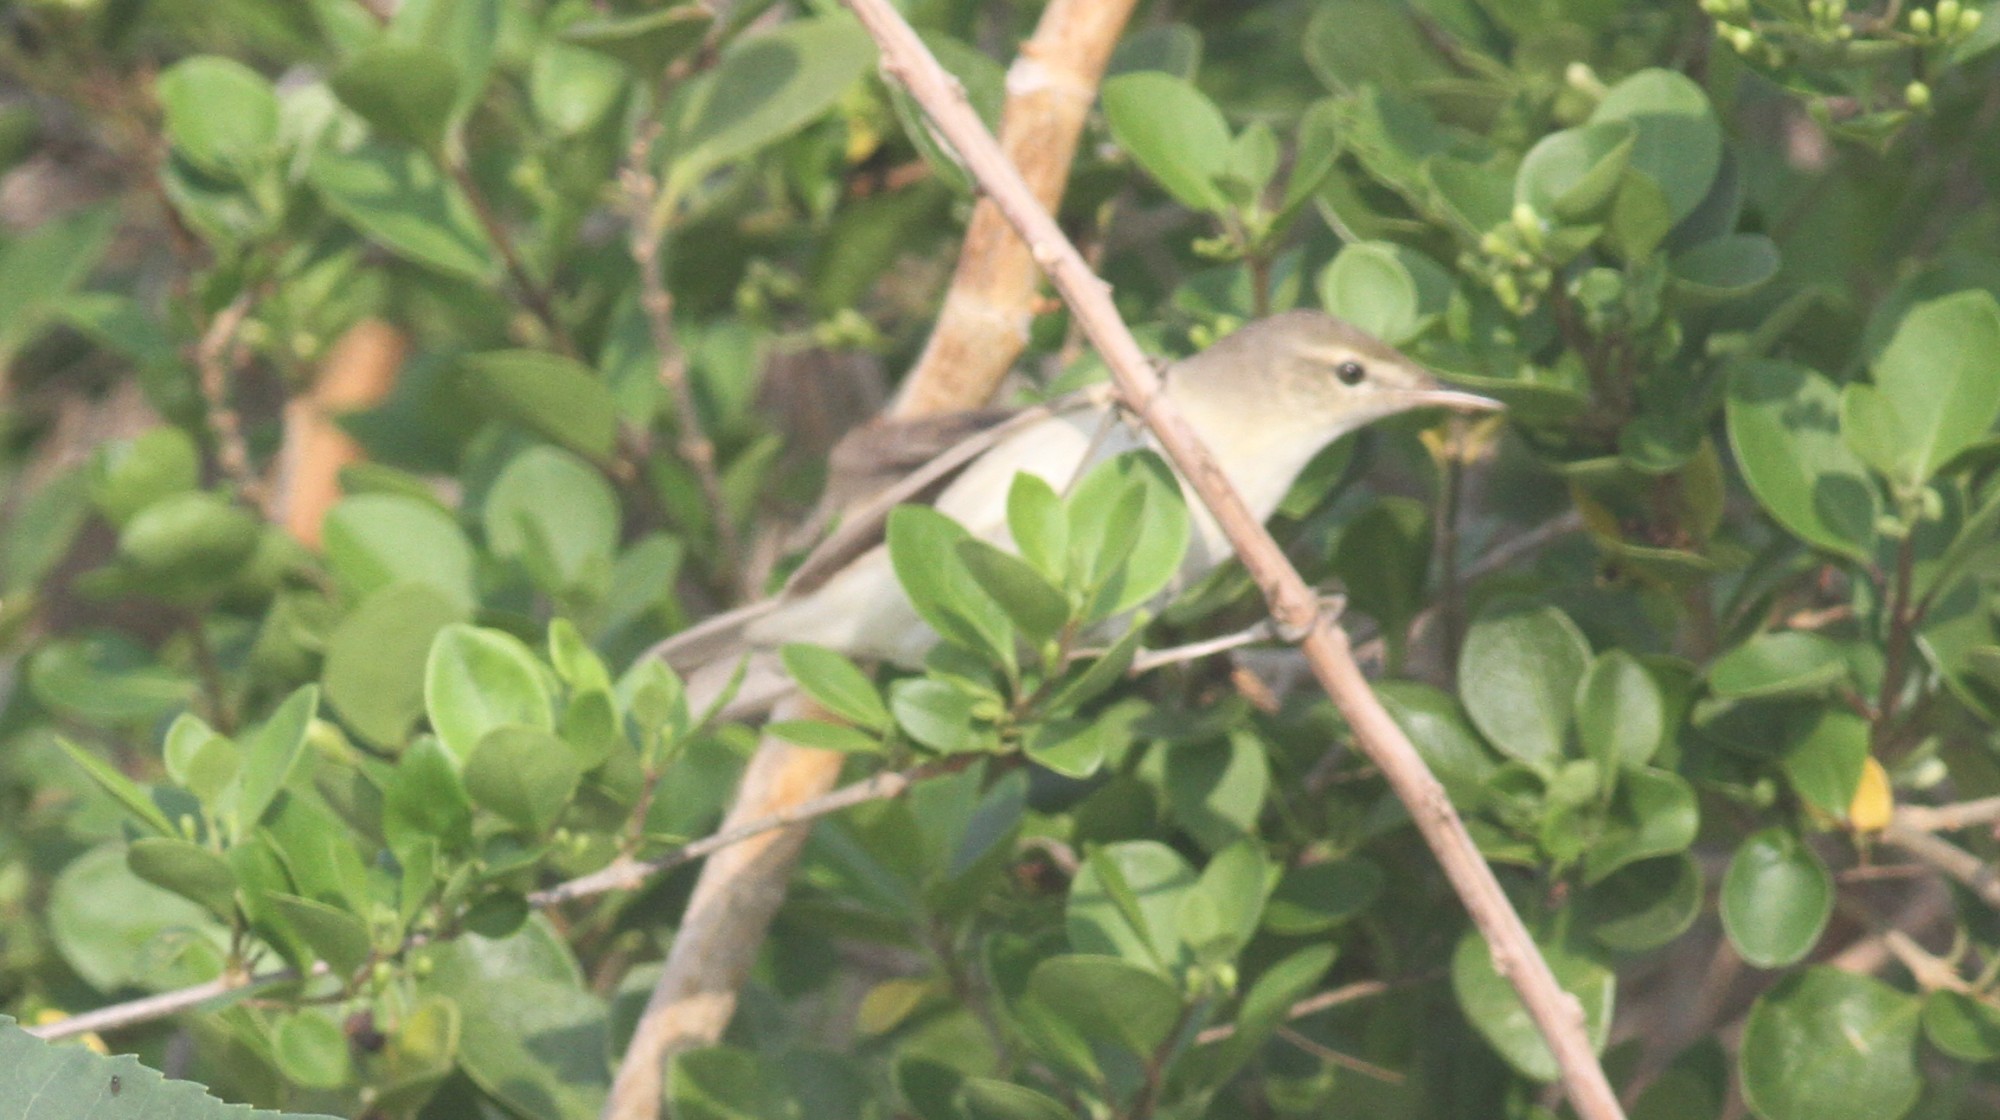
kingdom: Animalia
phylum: Chordata
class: Aves
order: Passeriformes
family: Acrocephalidae
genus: Acrocephalus
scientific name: Acrocephalus dumetorum
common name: Blyth's reed warbler
